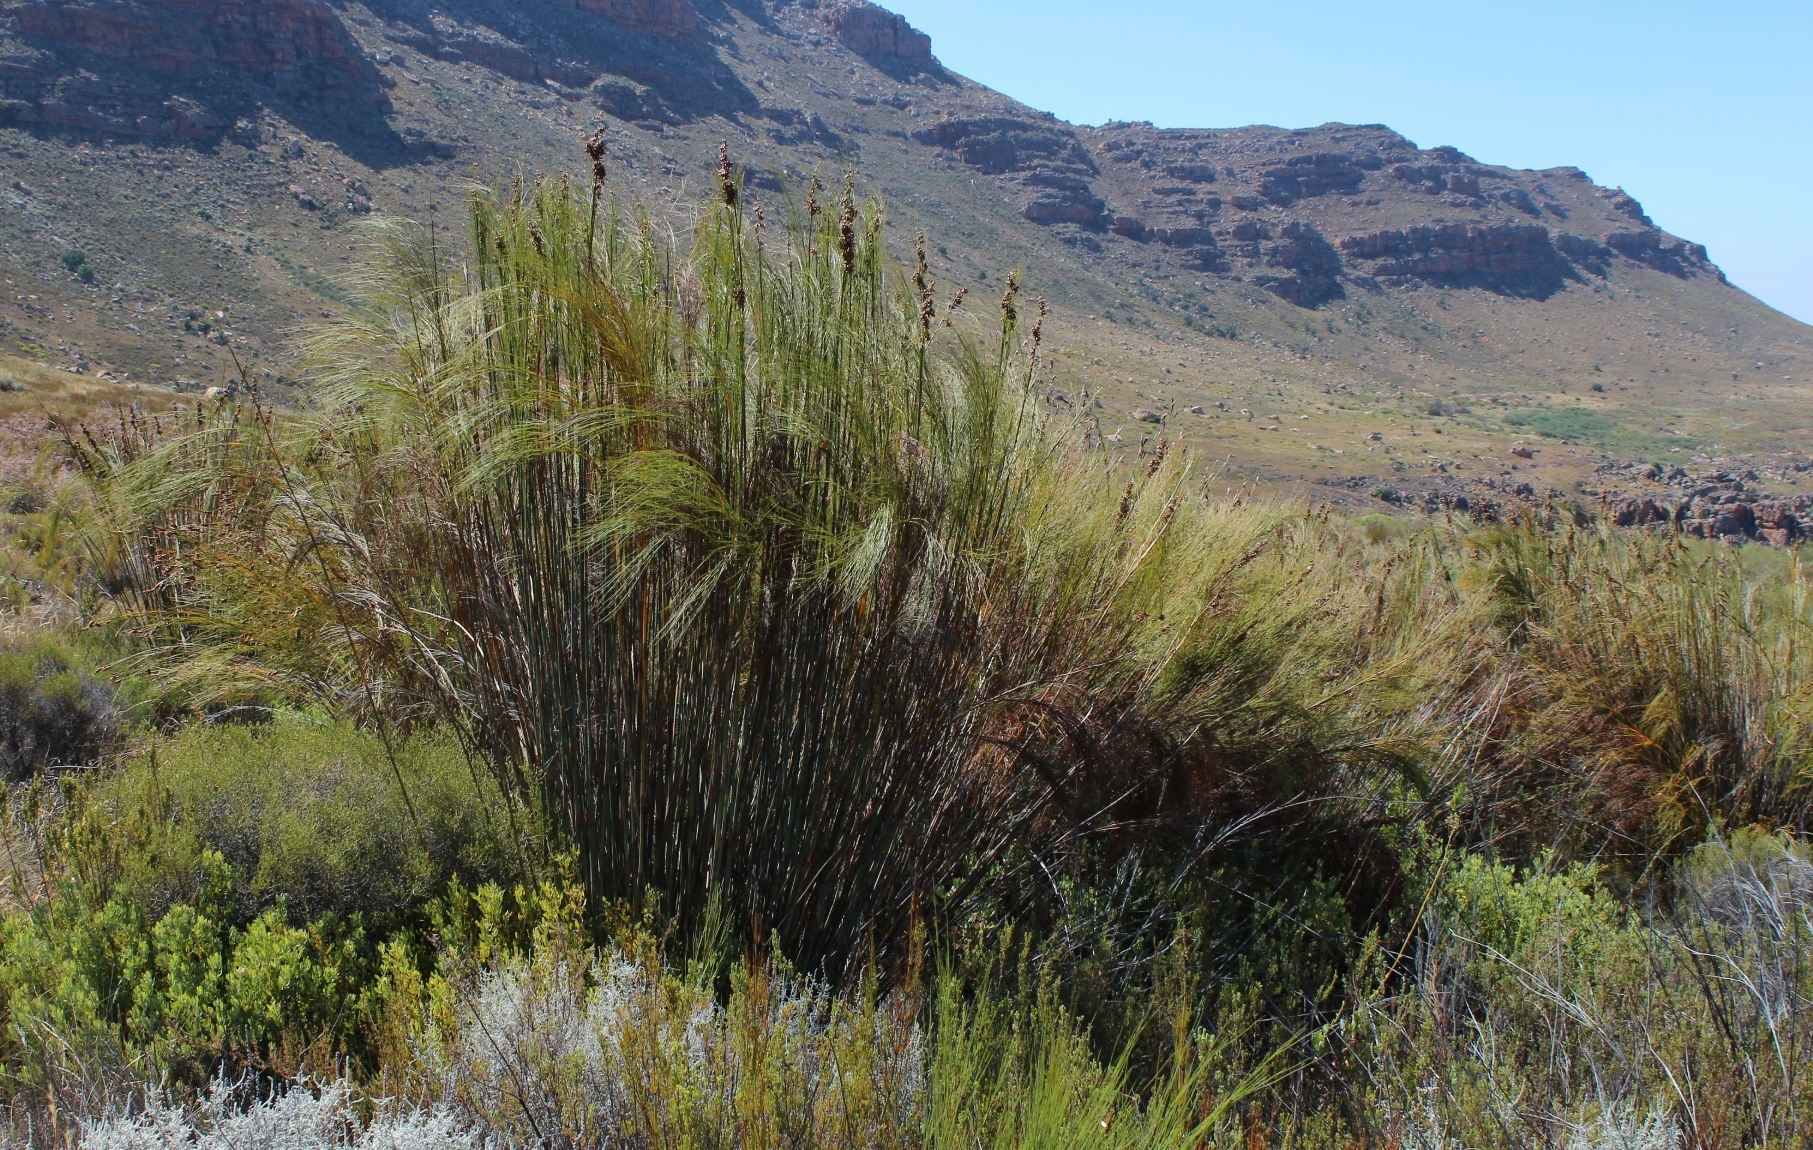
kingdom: Plantae
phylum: Tracheophyta
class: Liliopsida
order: Poales
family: Restionaceae
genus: Cannomois
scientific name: Cannomois robusta
